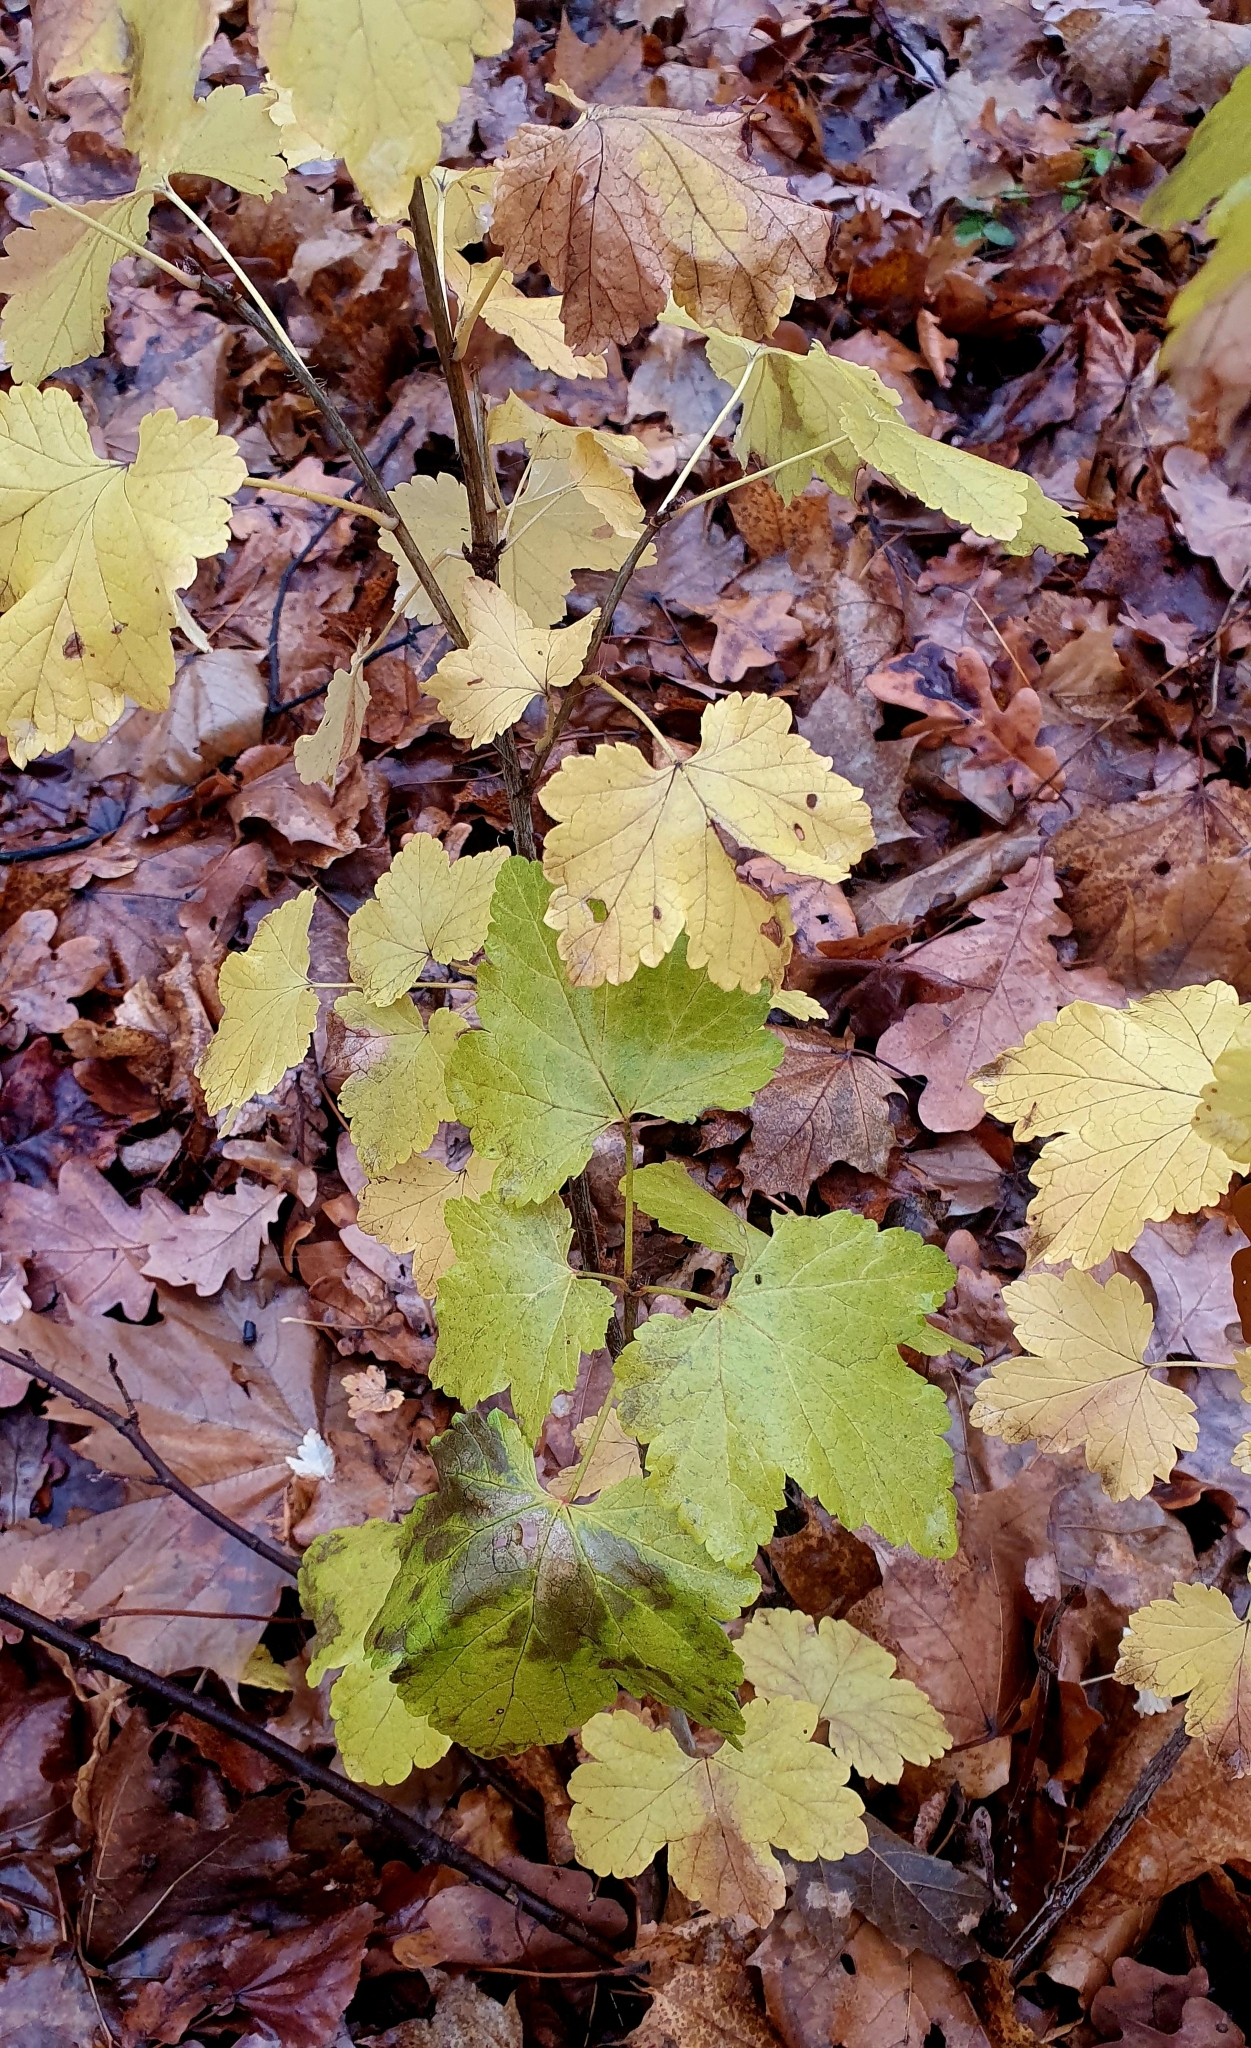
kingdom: Plantae
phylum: Tracheophyta
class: Magnoliopsida
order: Saxifragales
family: Grossulariaceae
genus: Ribes
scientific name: Ribes nigrum
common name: Black currant
